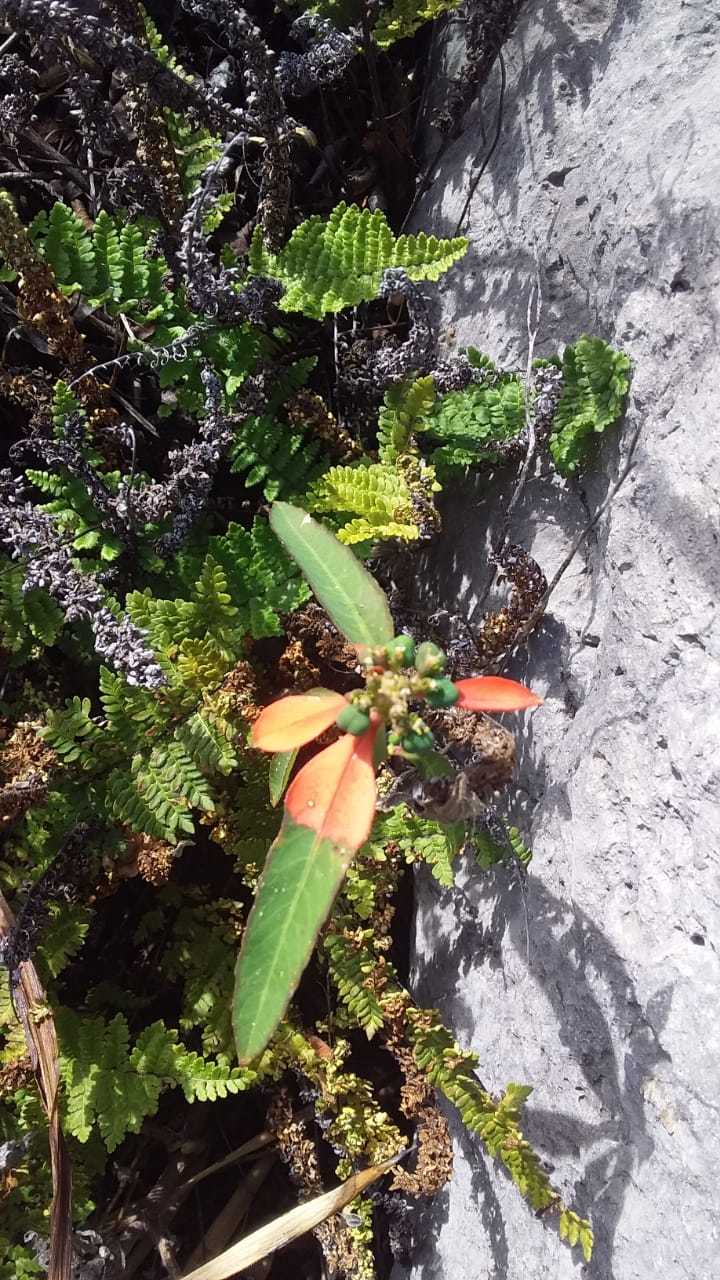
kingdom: Plantae
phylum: Tracheophyta
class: Magnoliopsida
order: Malpighiales
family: Euphorbiaceae
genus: Euphorbia
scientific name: Euphorbia heterophylla
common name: Mexican fireplant
